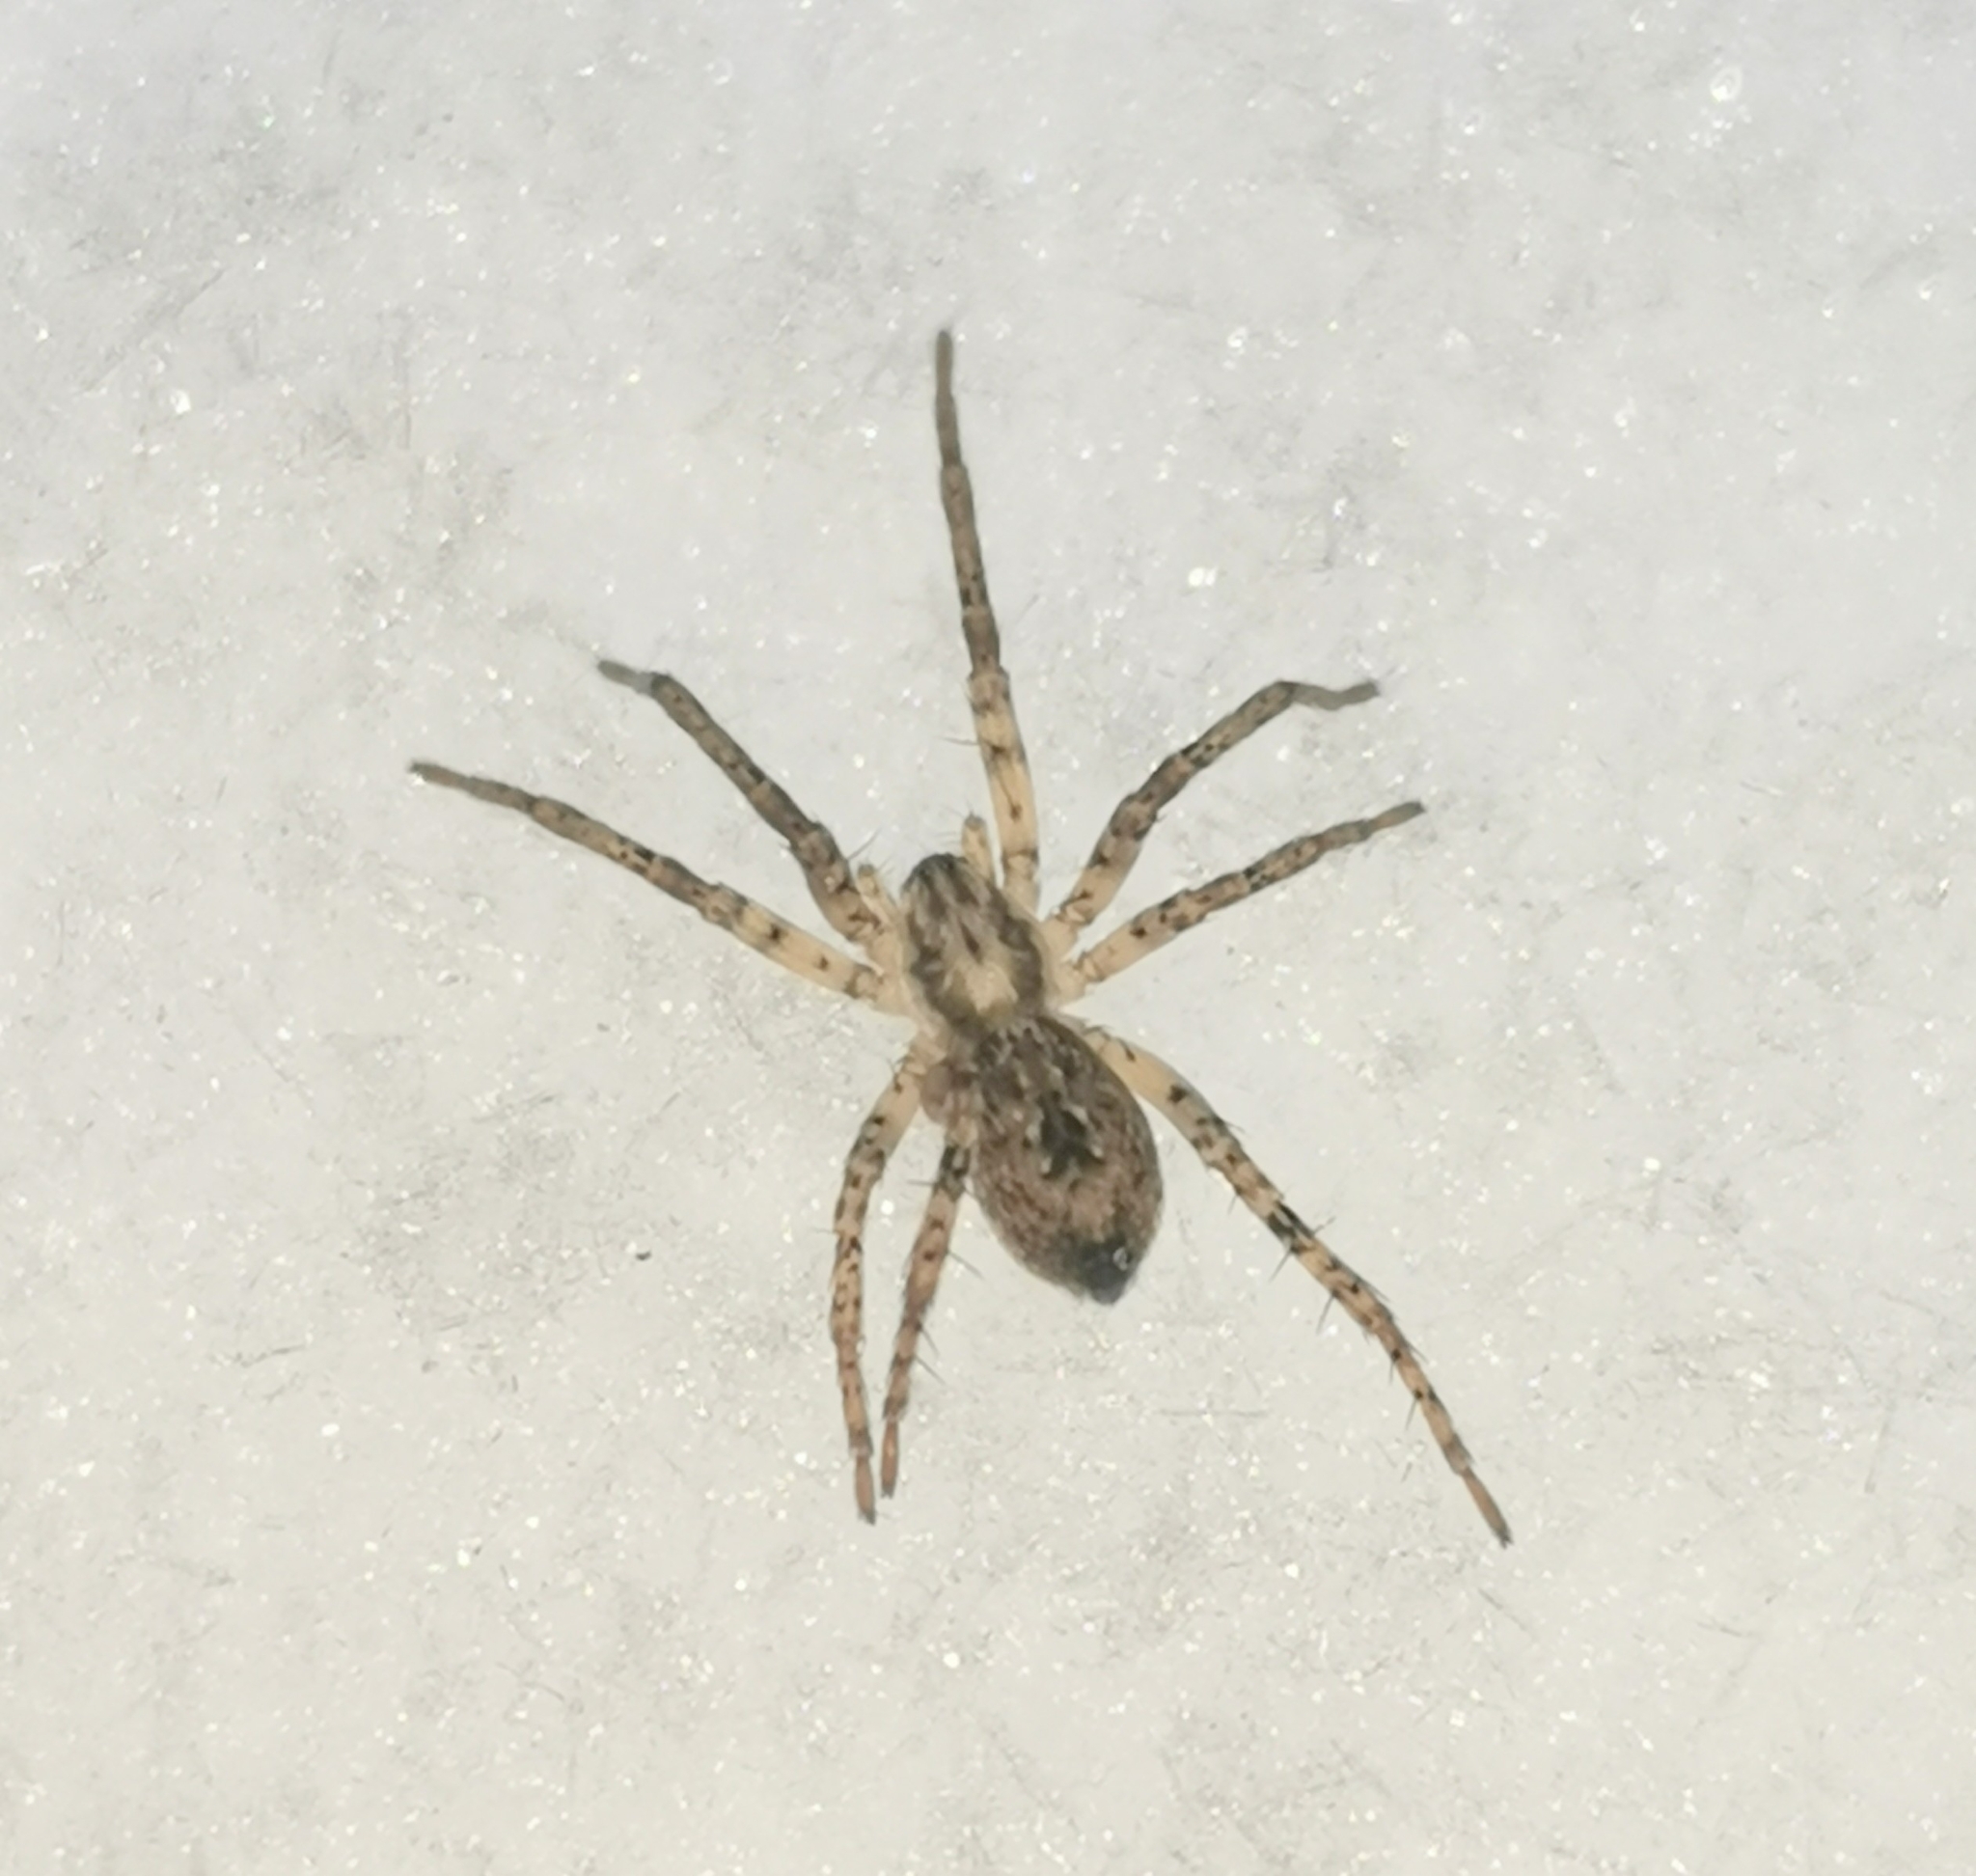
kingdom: Animalia
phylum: Arthropoda
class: Arachnida
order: Araneae
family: Anyphaenidae
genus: Anyphaena
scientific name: Anyphaena accentuata
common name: Buzzing spider
